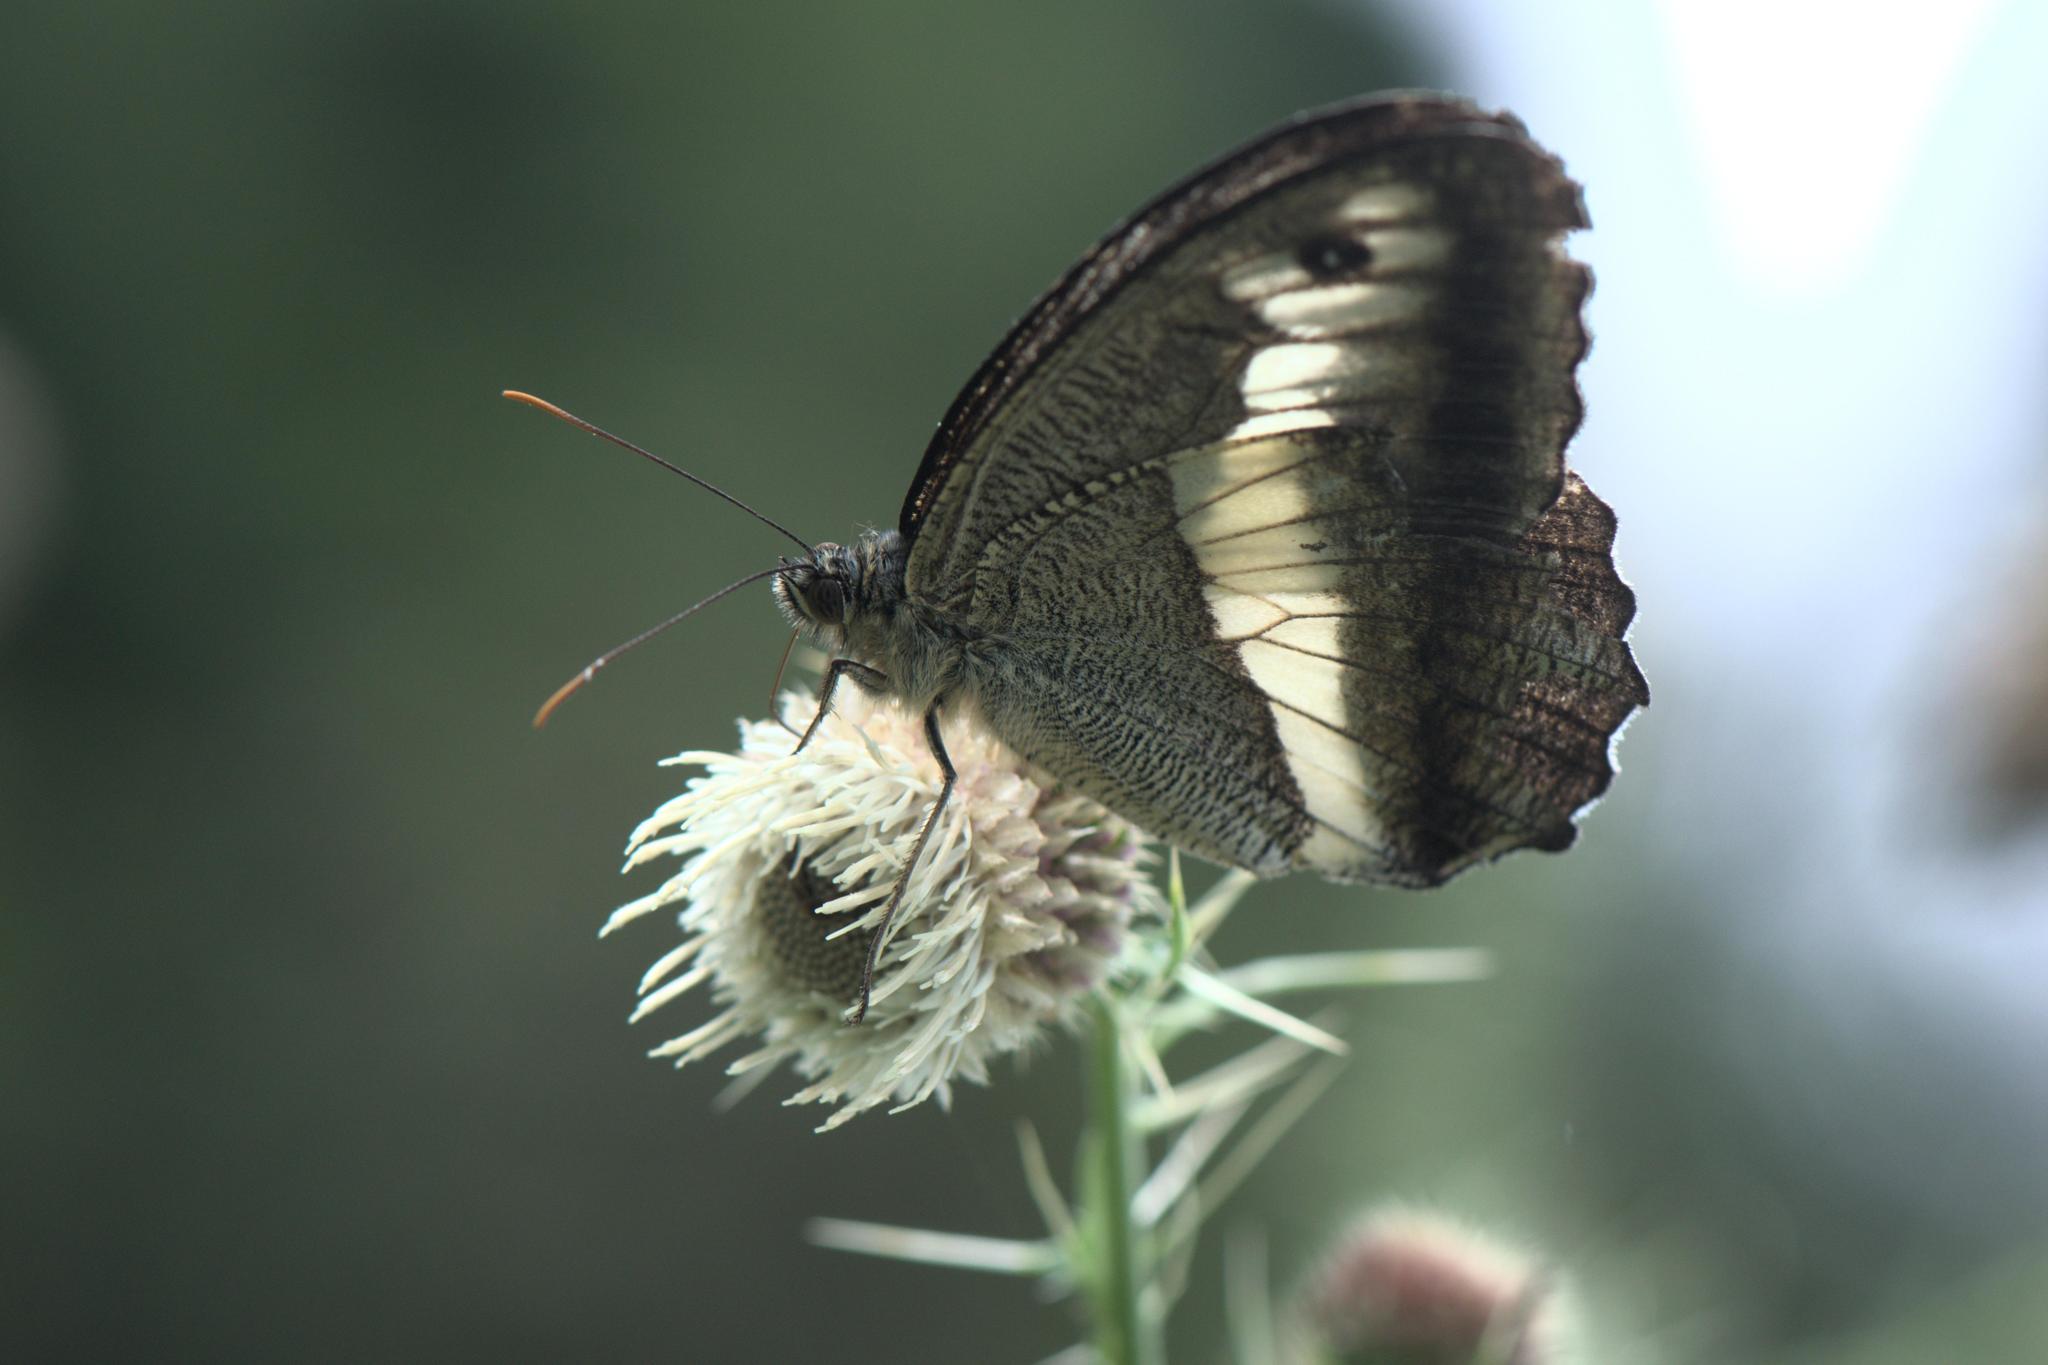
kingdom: Animalia
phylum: Arthropoda
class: Insecta
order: Lepidoptera
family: Nymphalidae
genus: Satyrus
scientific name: Satyrus
